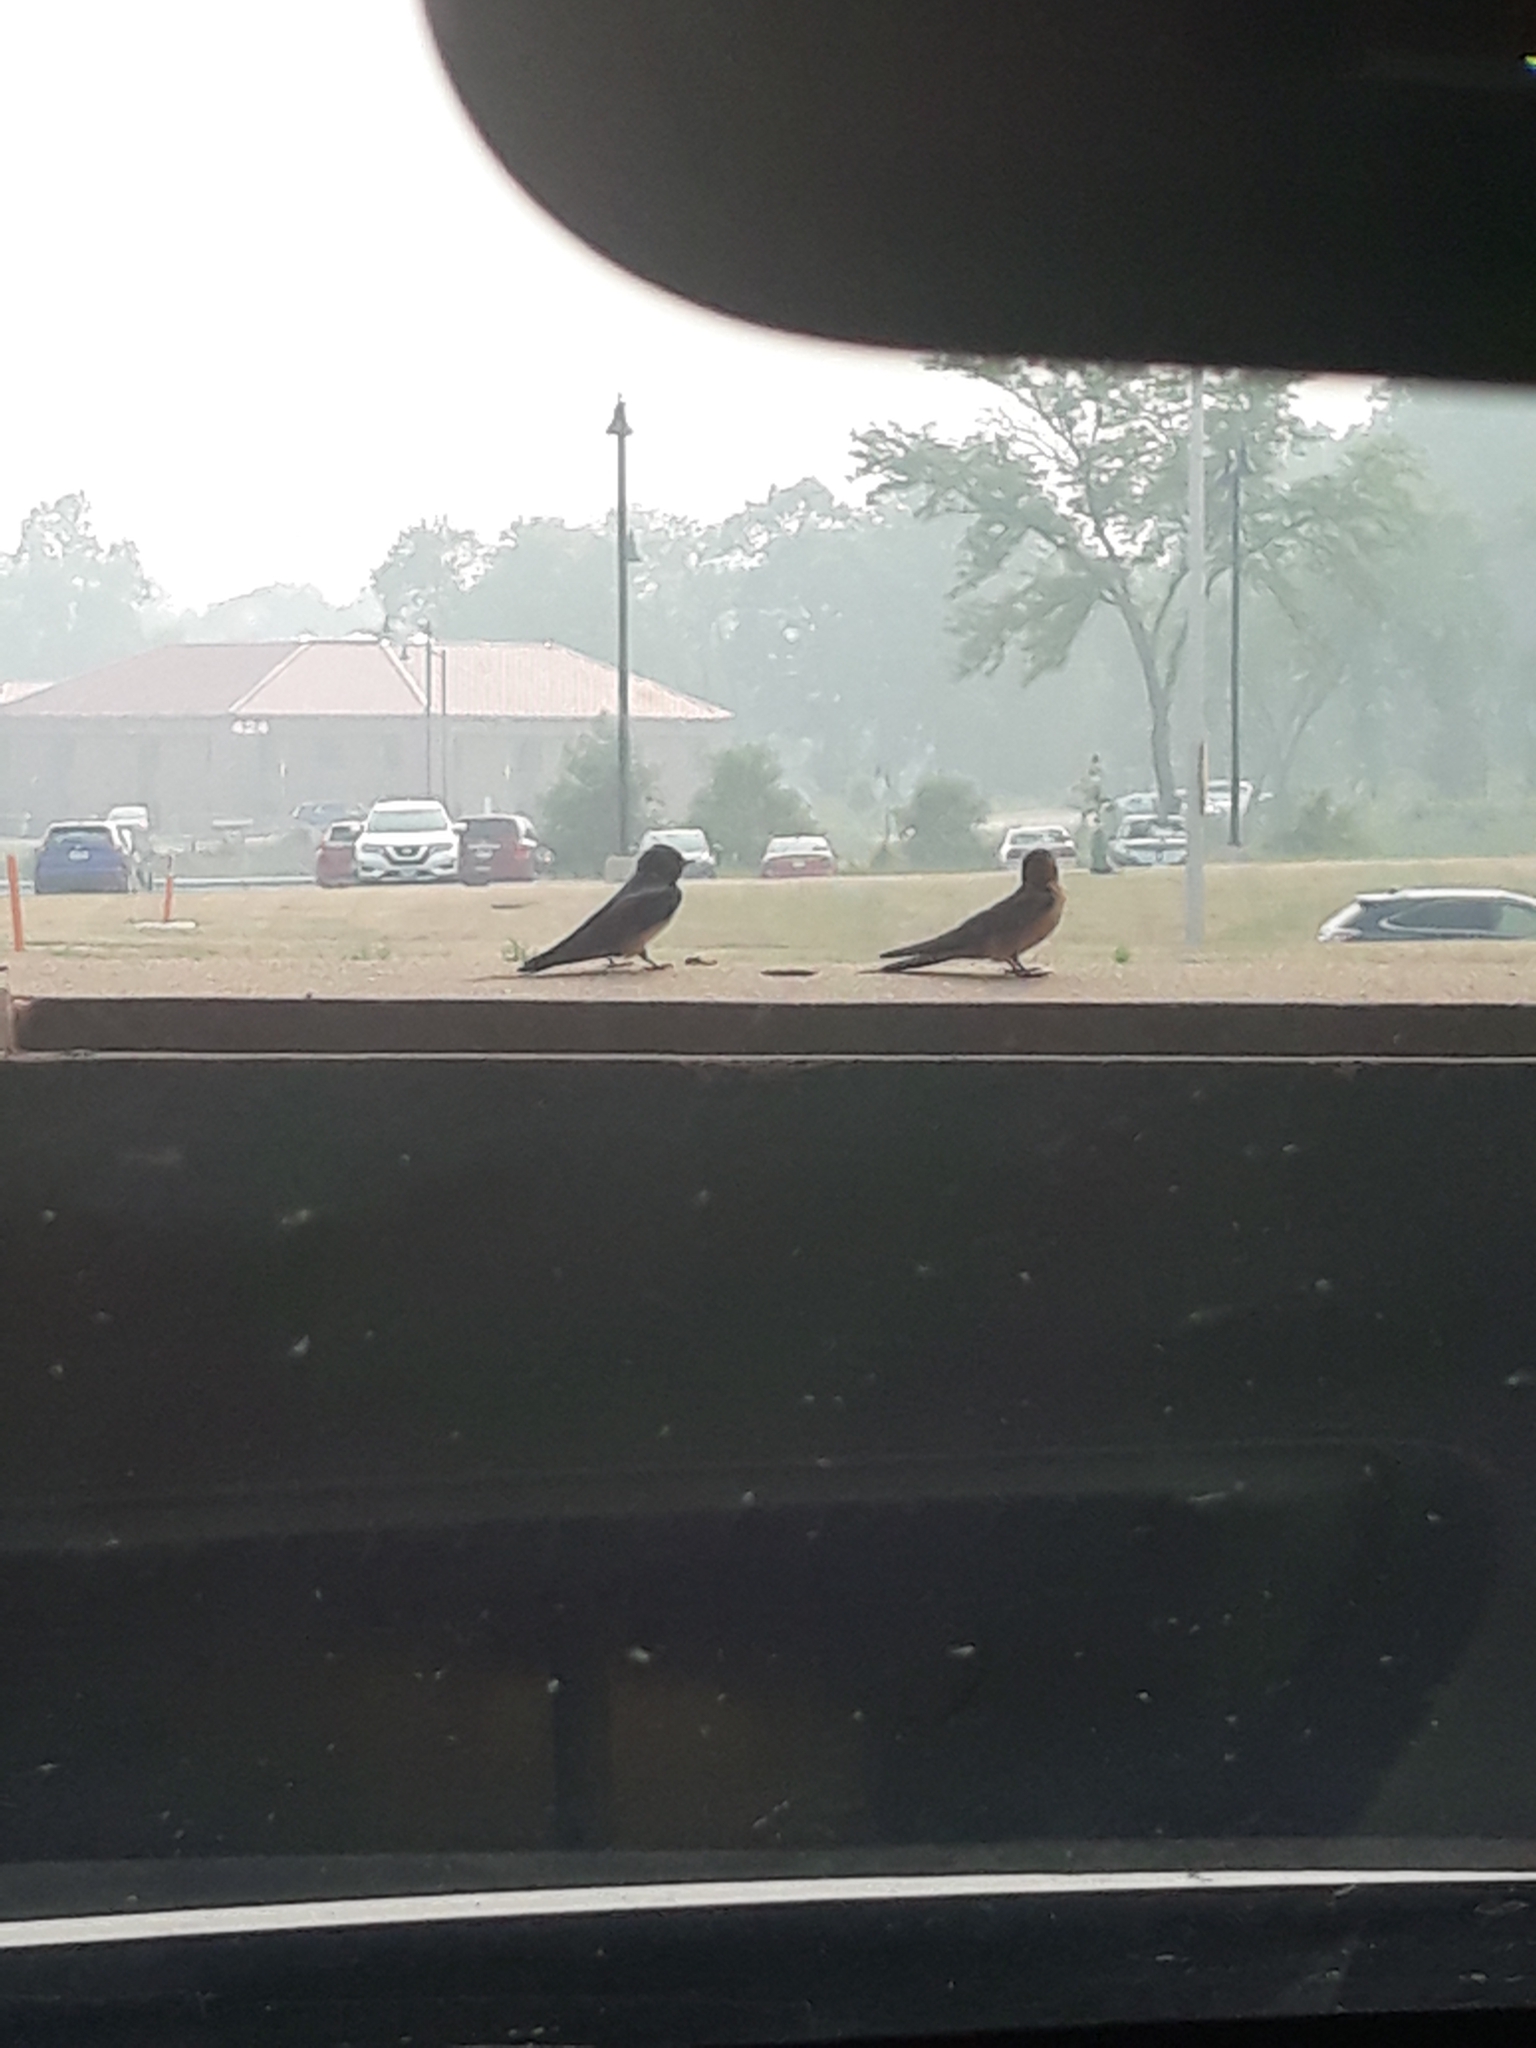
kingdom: Animalia
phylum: Chordata
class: Aves
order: Passeriformes
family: Hirundinidae
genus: Hirundo
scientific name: Hirundo rustica
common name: Barn swallow
